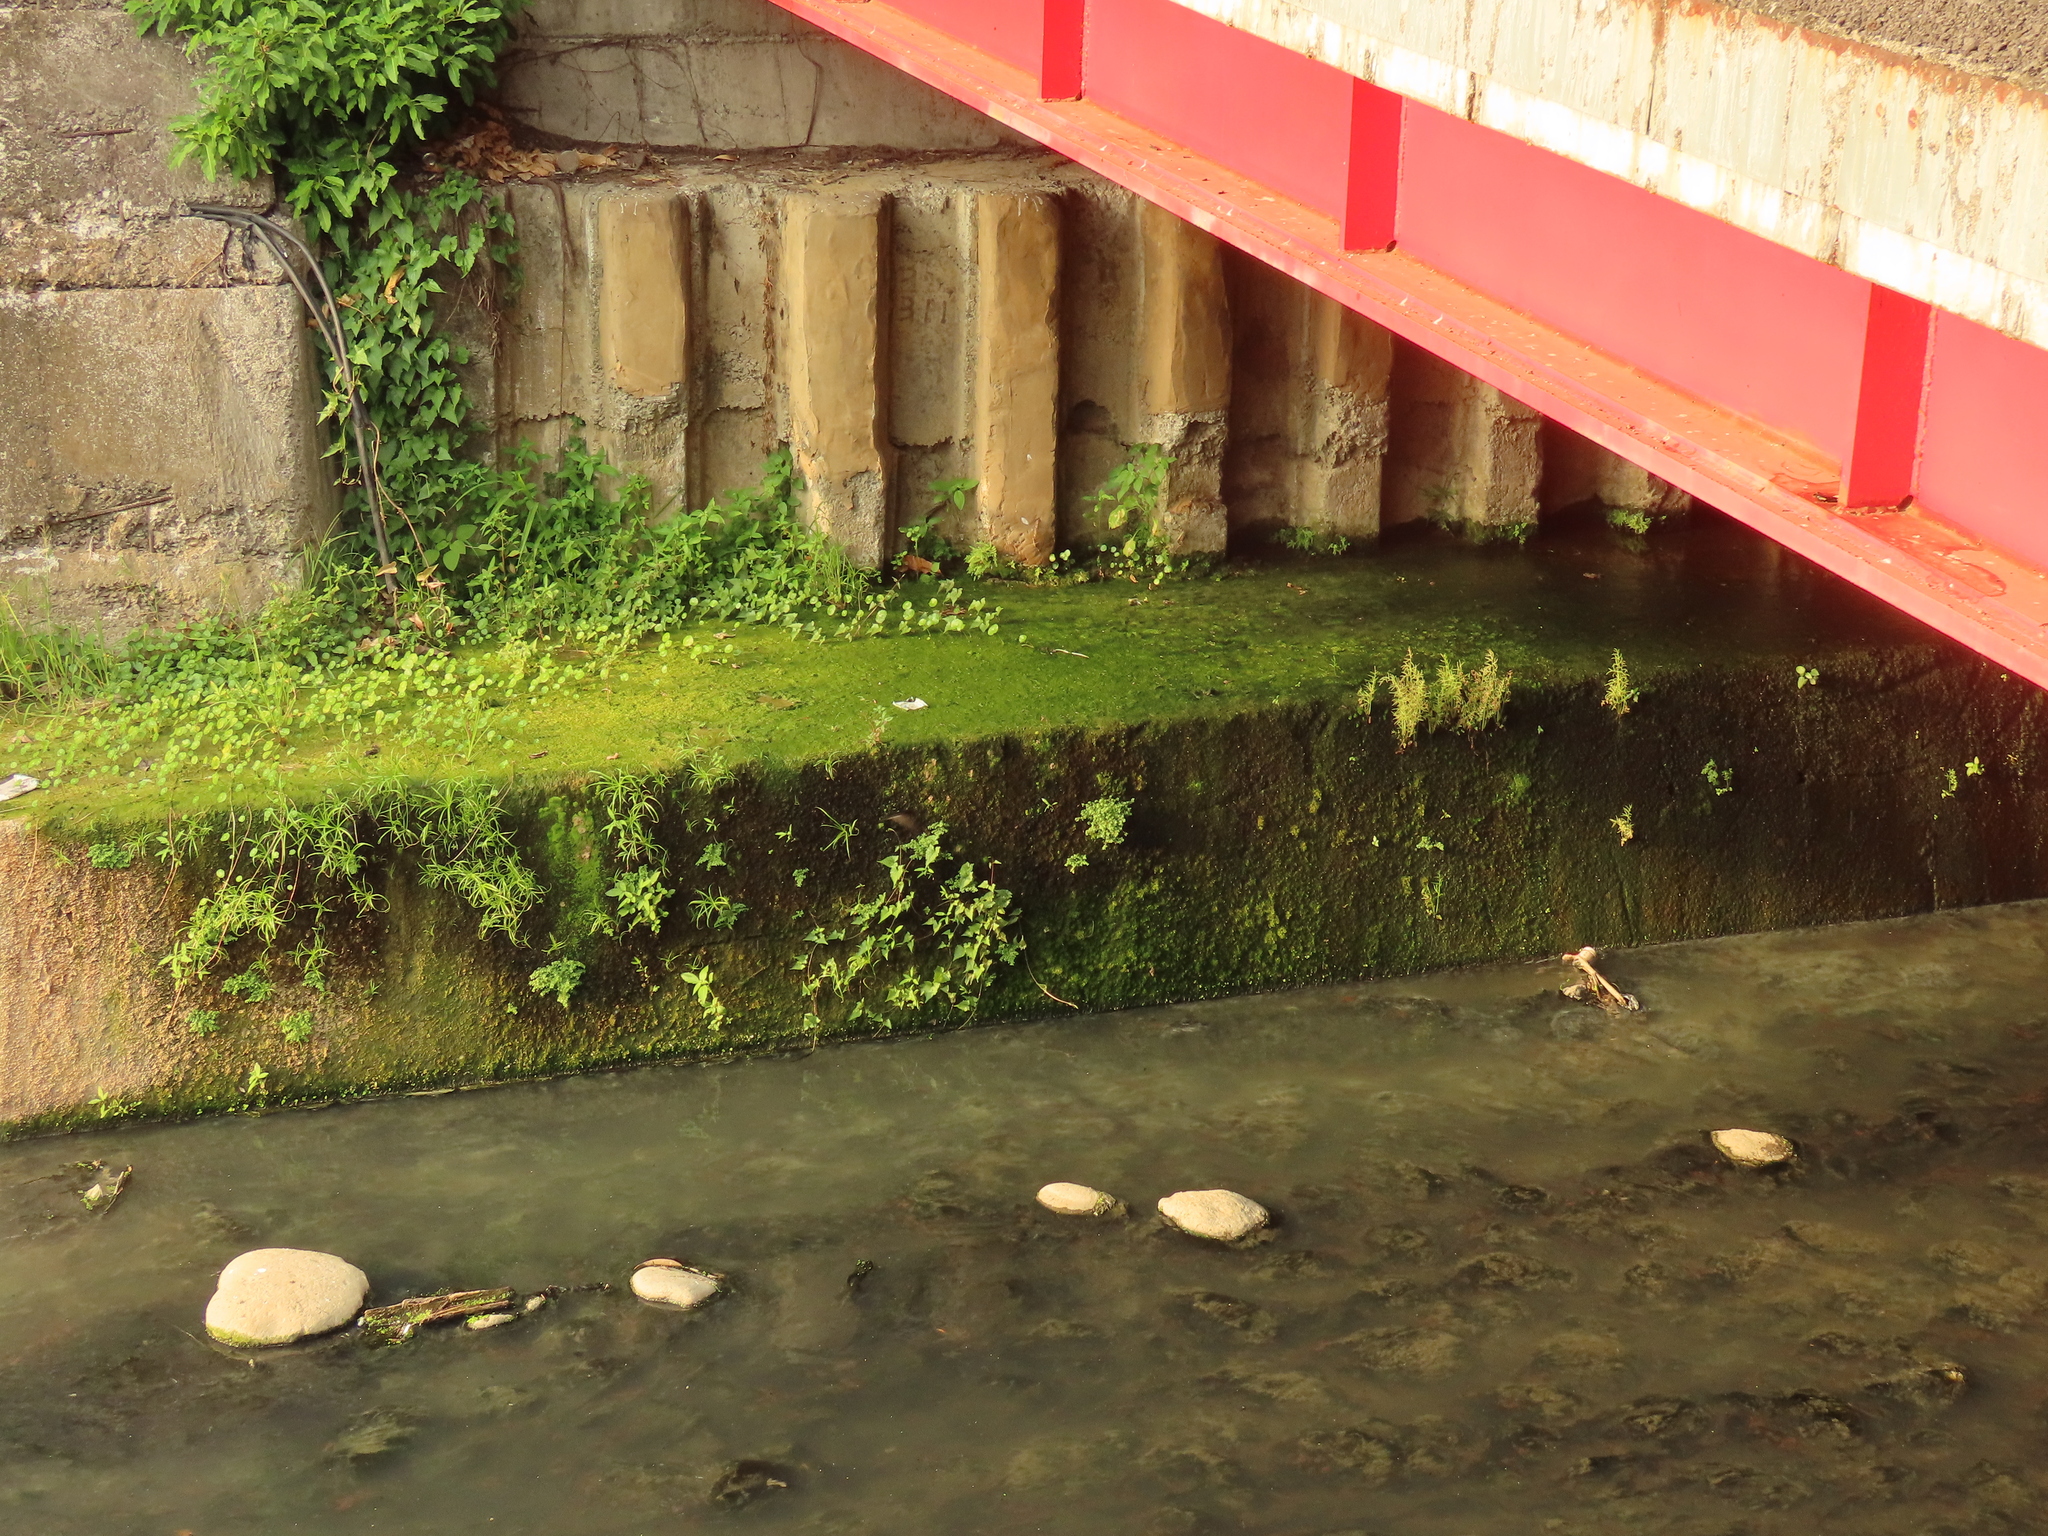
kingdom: Plantae
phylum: Tracheophyta
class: Magnoliopsida
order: Apiales
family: Araliaceae
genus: Hydrocotyle
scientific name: Hydrocotyle verticillata
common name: Whorled marshpennywort
